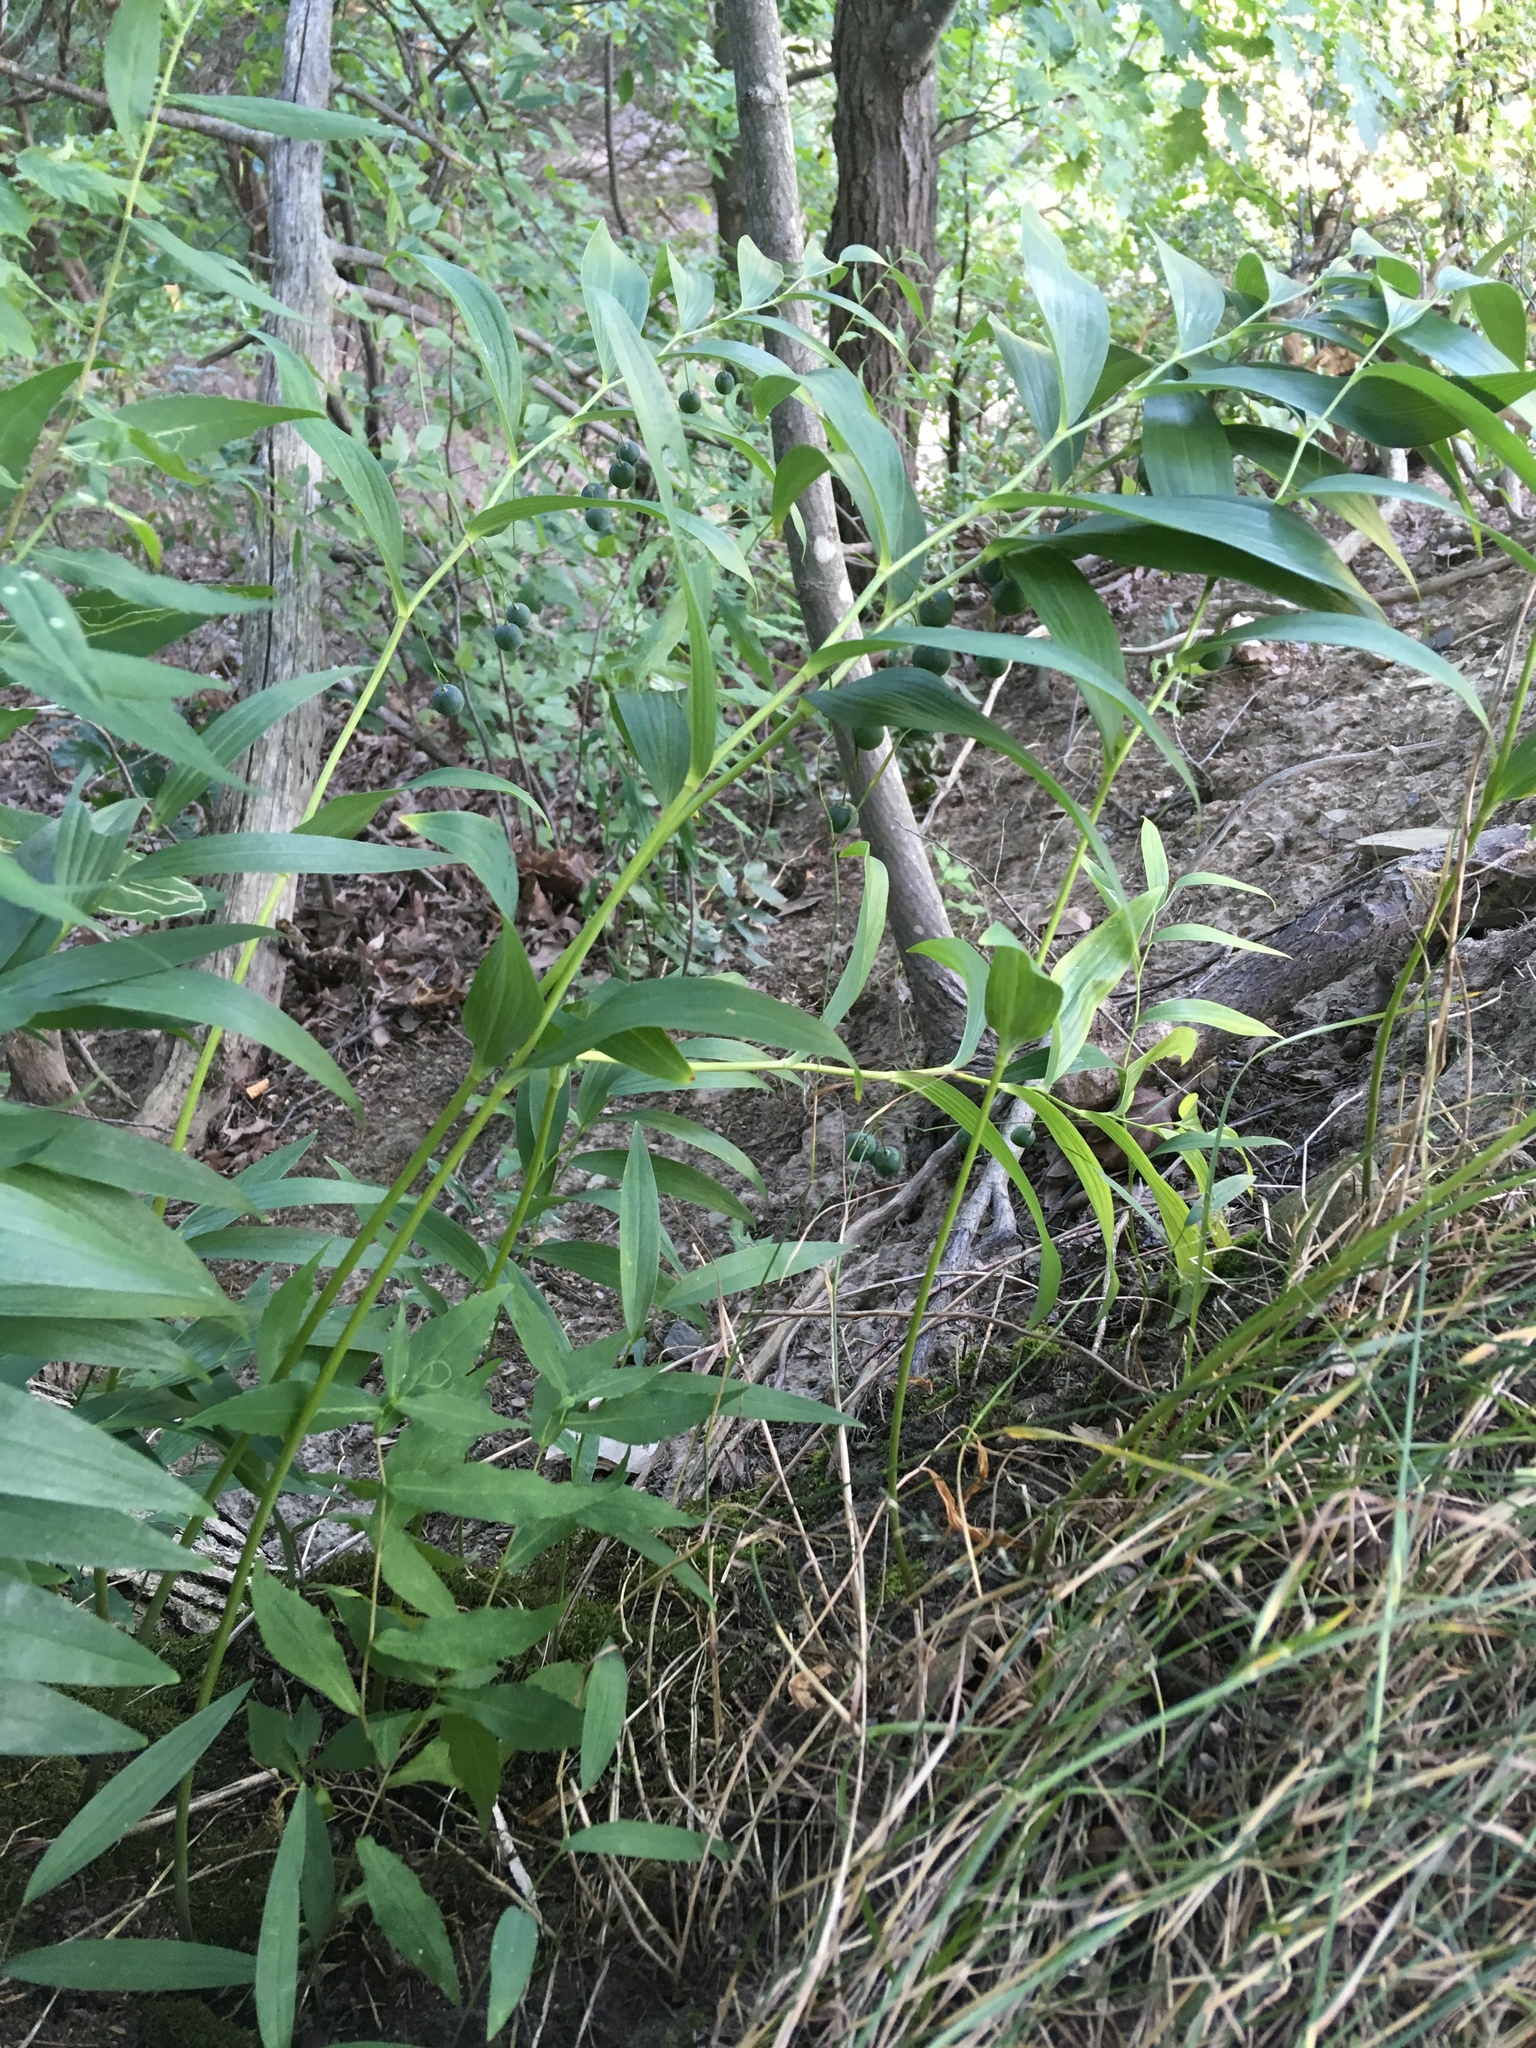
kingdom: Plantae
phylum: Tracheophyta
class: Liliopsida
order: Asparagales
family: Asparagaceae
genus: Polygonatum
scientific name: Polygonatum biflorum
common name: American solomon's-seal
